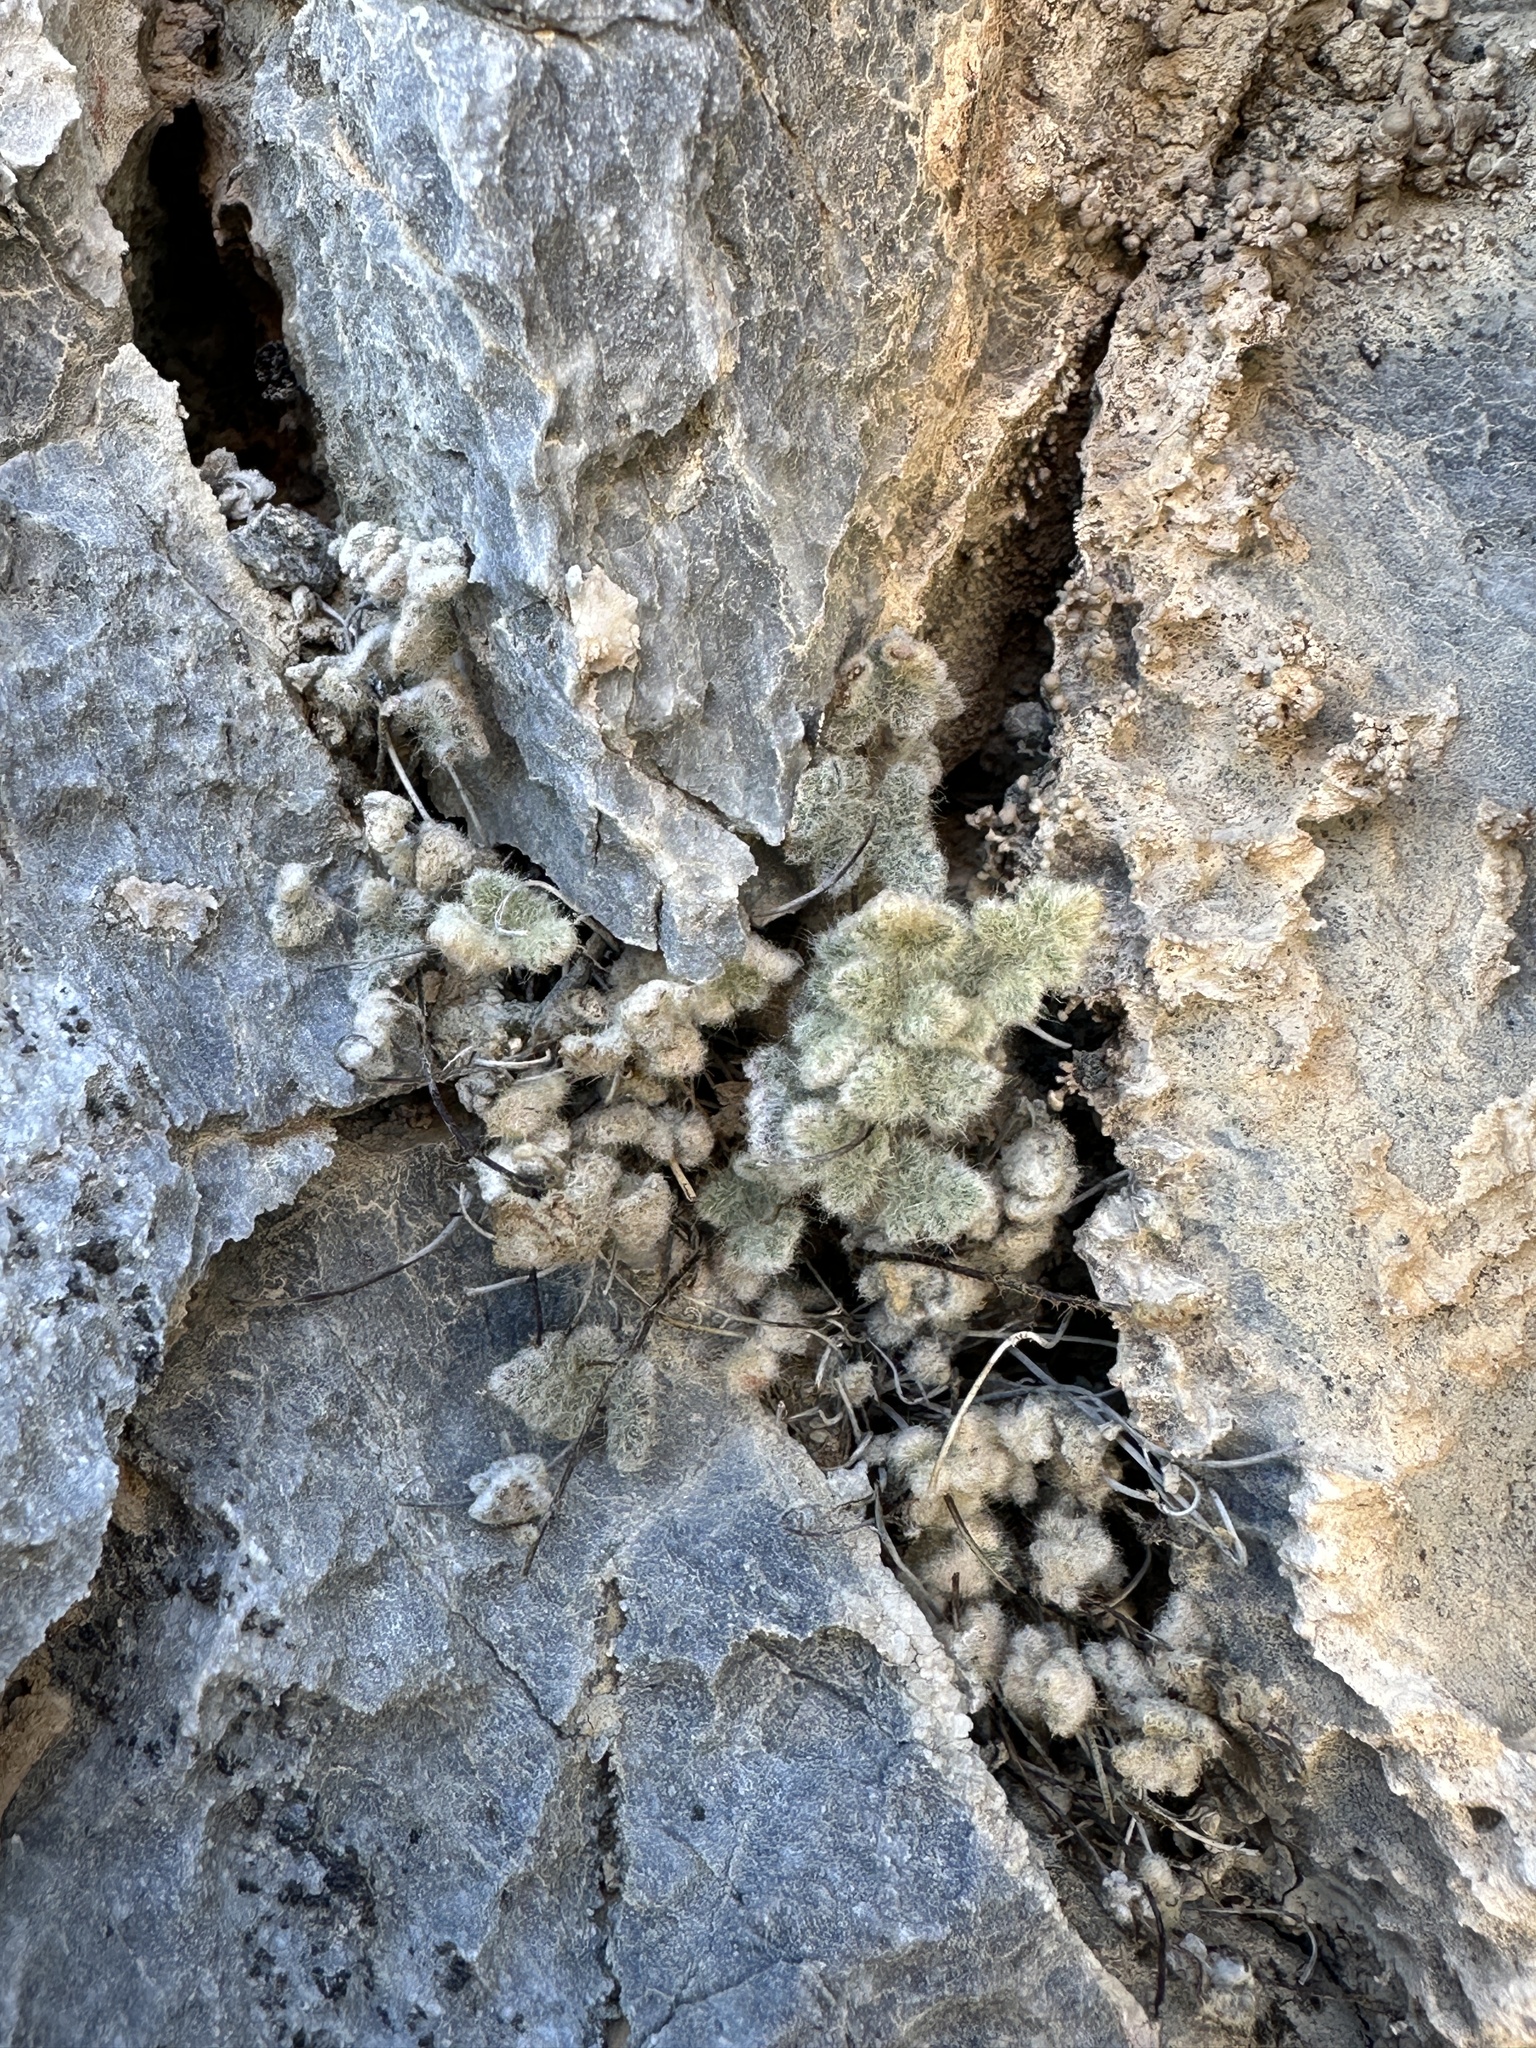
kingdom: Plantae
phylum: Tracheophyta
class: Polypodiopsida
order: Polypodiales
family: Pteridaceae
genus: Myriopteris
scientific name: Myriopteris parryi
